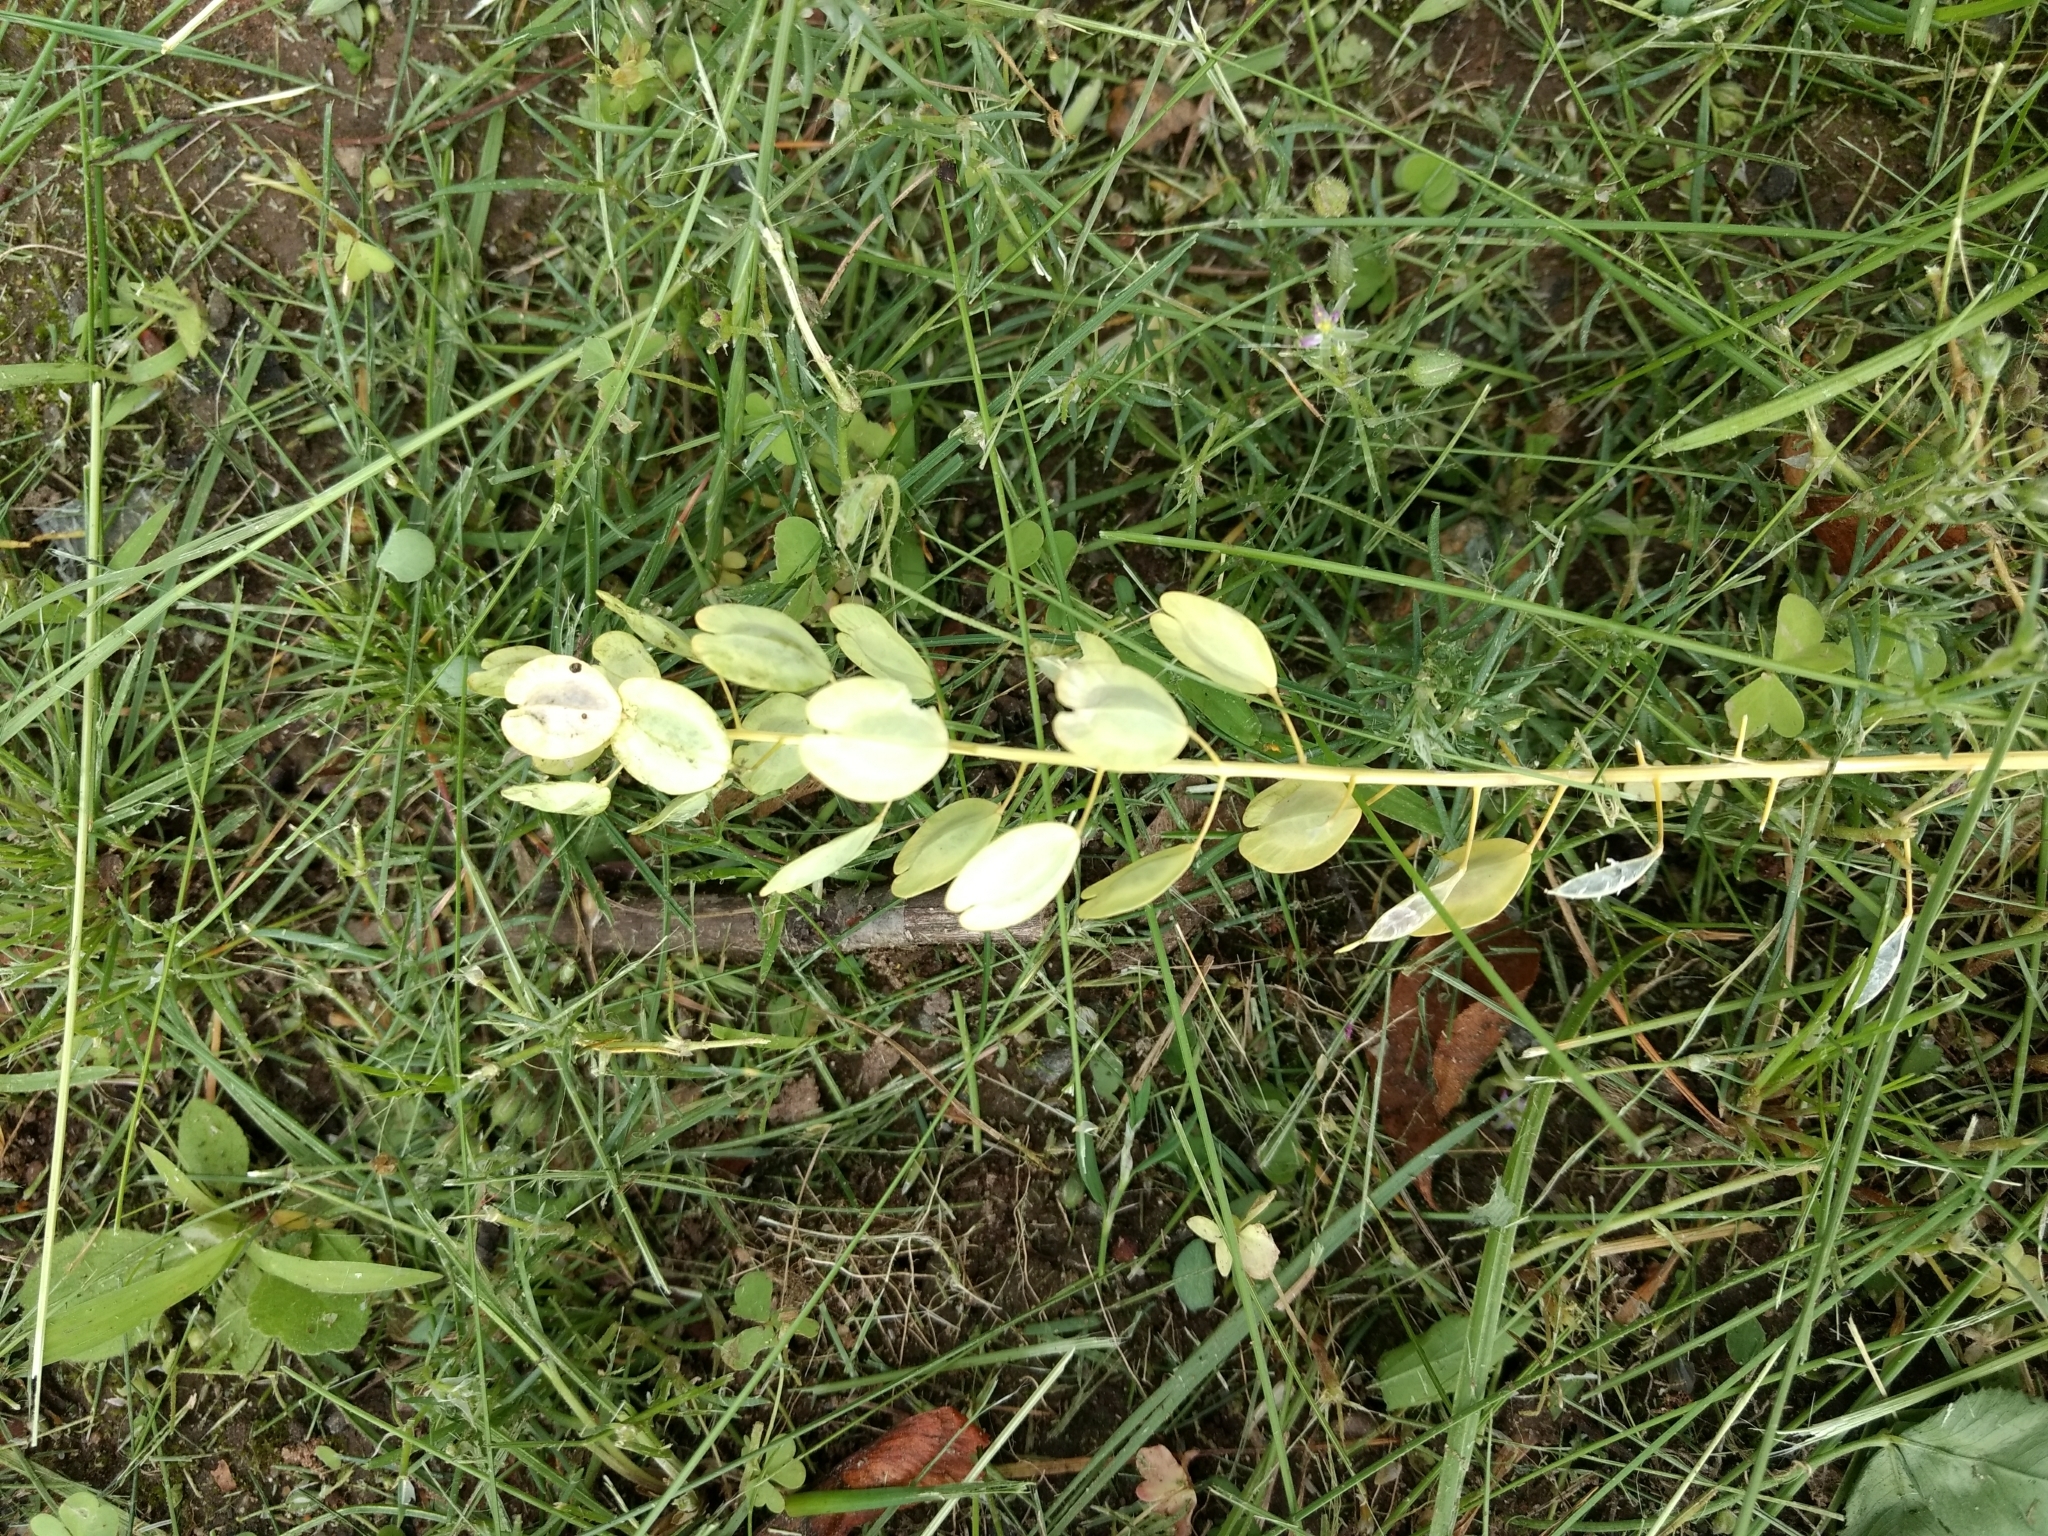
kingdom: Plantae
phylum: Tracheophyta
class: Magnoliopsida
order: Brassicales
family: Brassicaceae
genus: Thlaspi
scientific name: Thlaspi arvense
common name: Field pennycress
